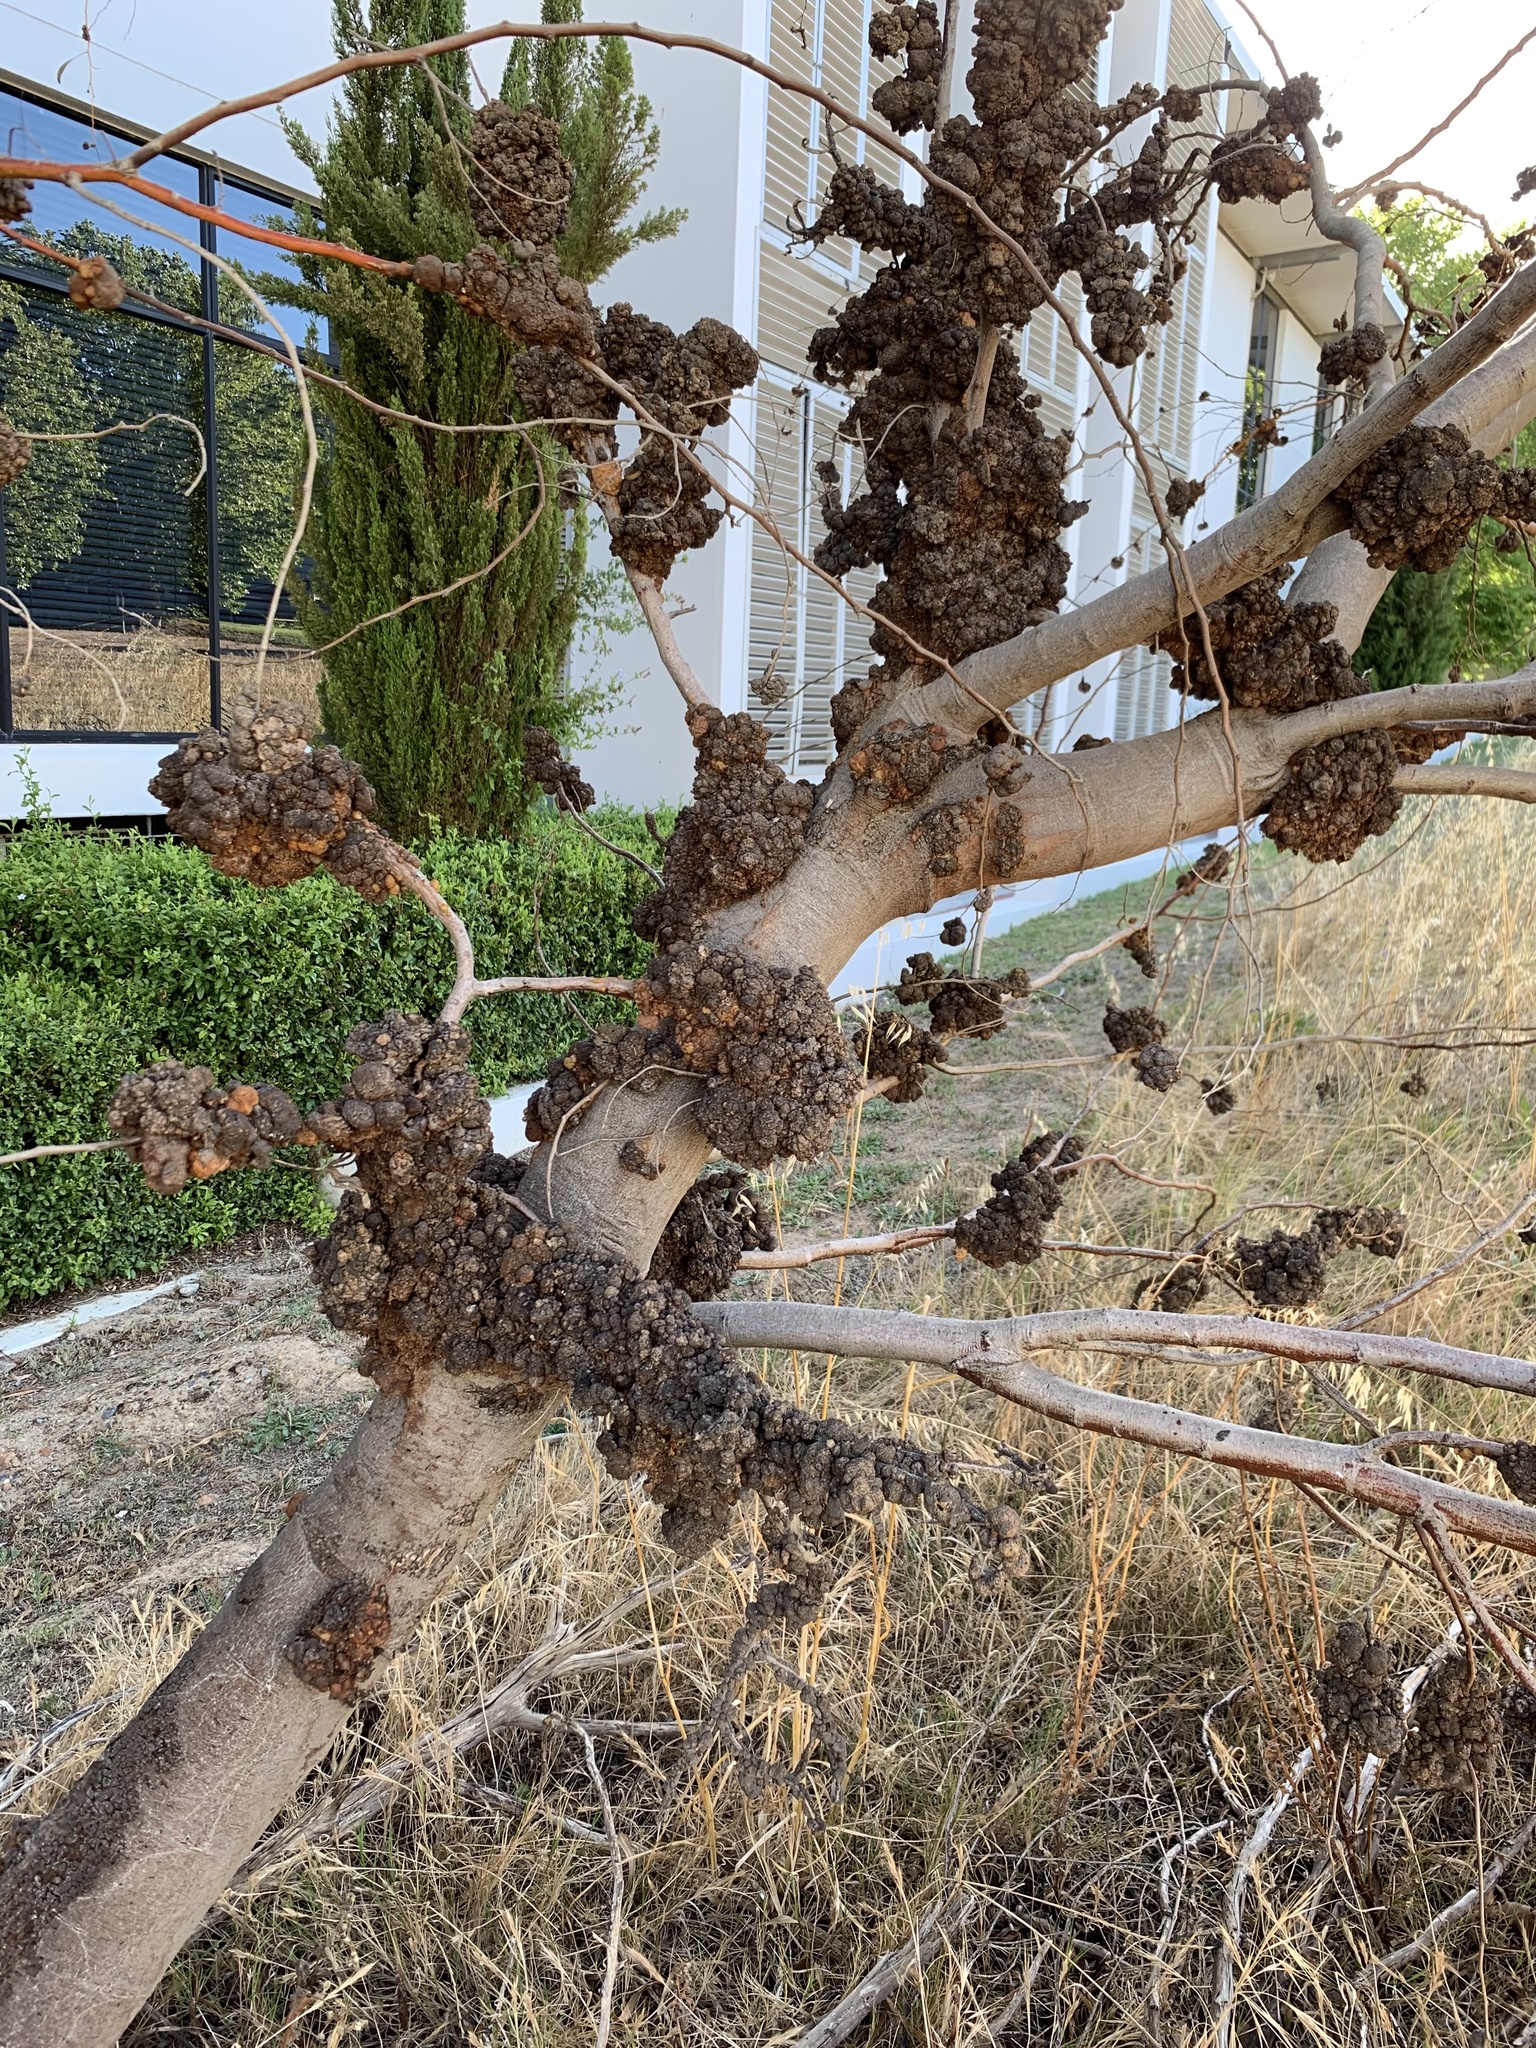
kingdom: Plantae
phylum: Tracheophyta
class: Magnoliopsida
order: Fabales
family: Fabaceae
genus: Acacia
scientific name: Acacia saligna
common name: Orange wattle
